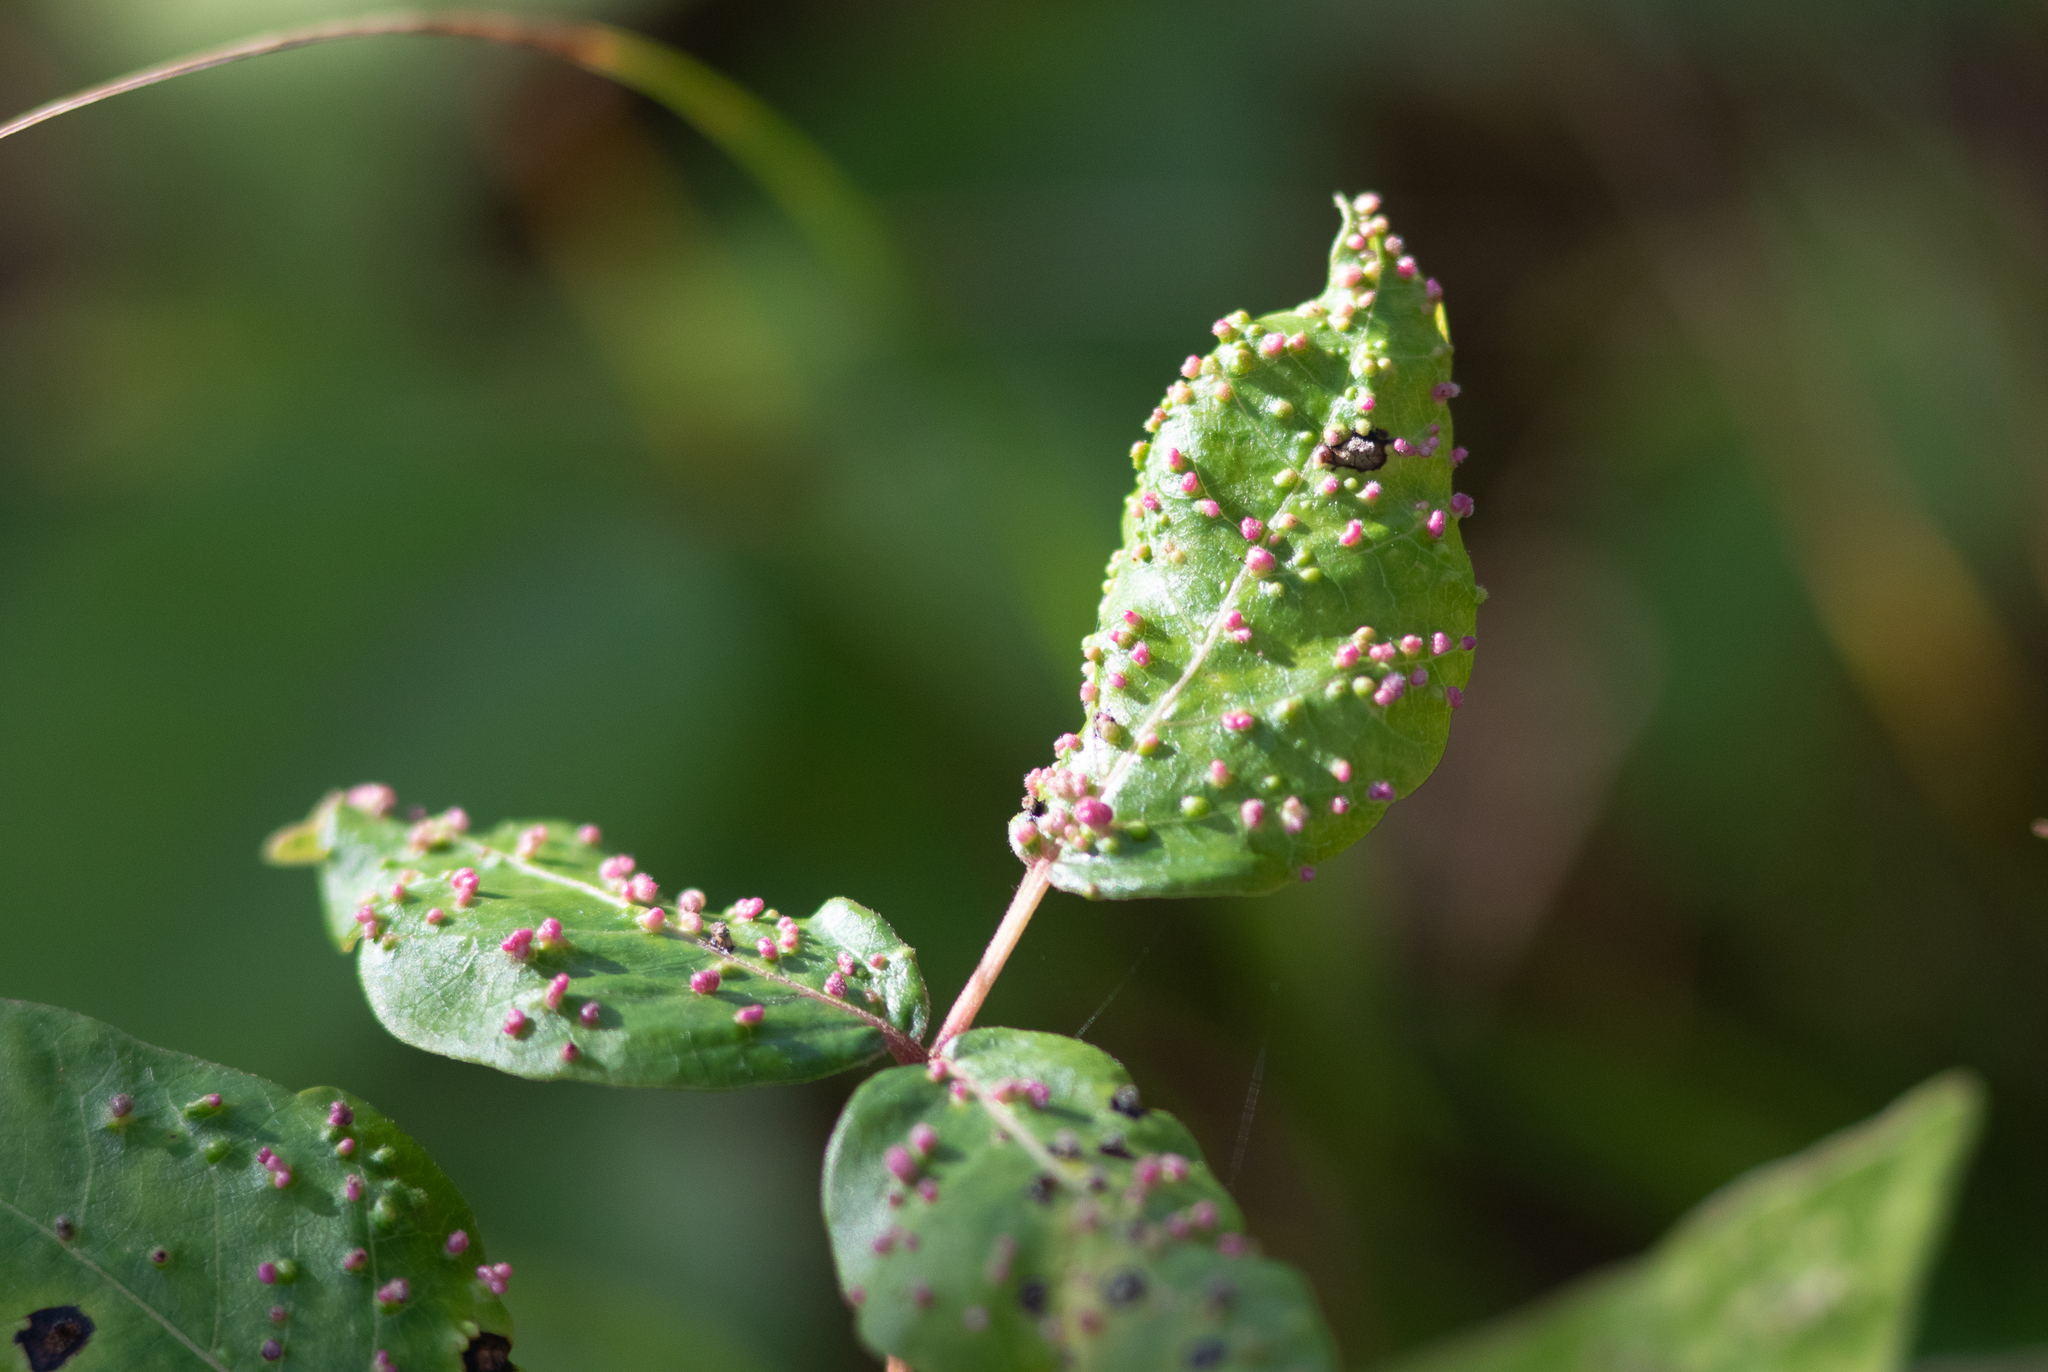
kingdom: Animalia
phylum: Arthropoda
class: Arachnida
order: Trombidiformes
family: Eriophyidae
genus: Aculops
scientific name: Aculops
